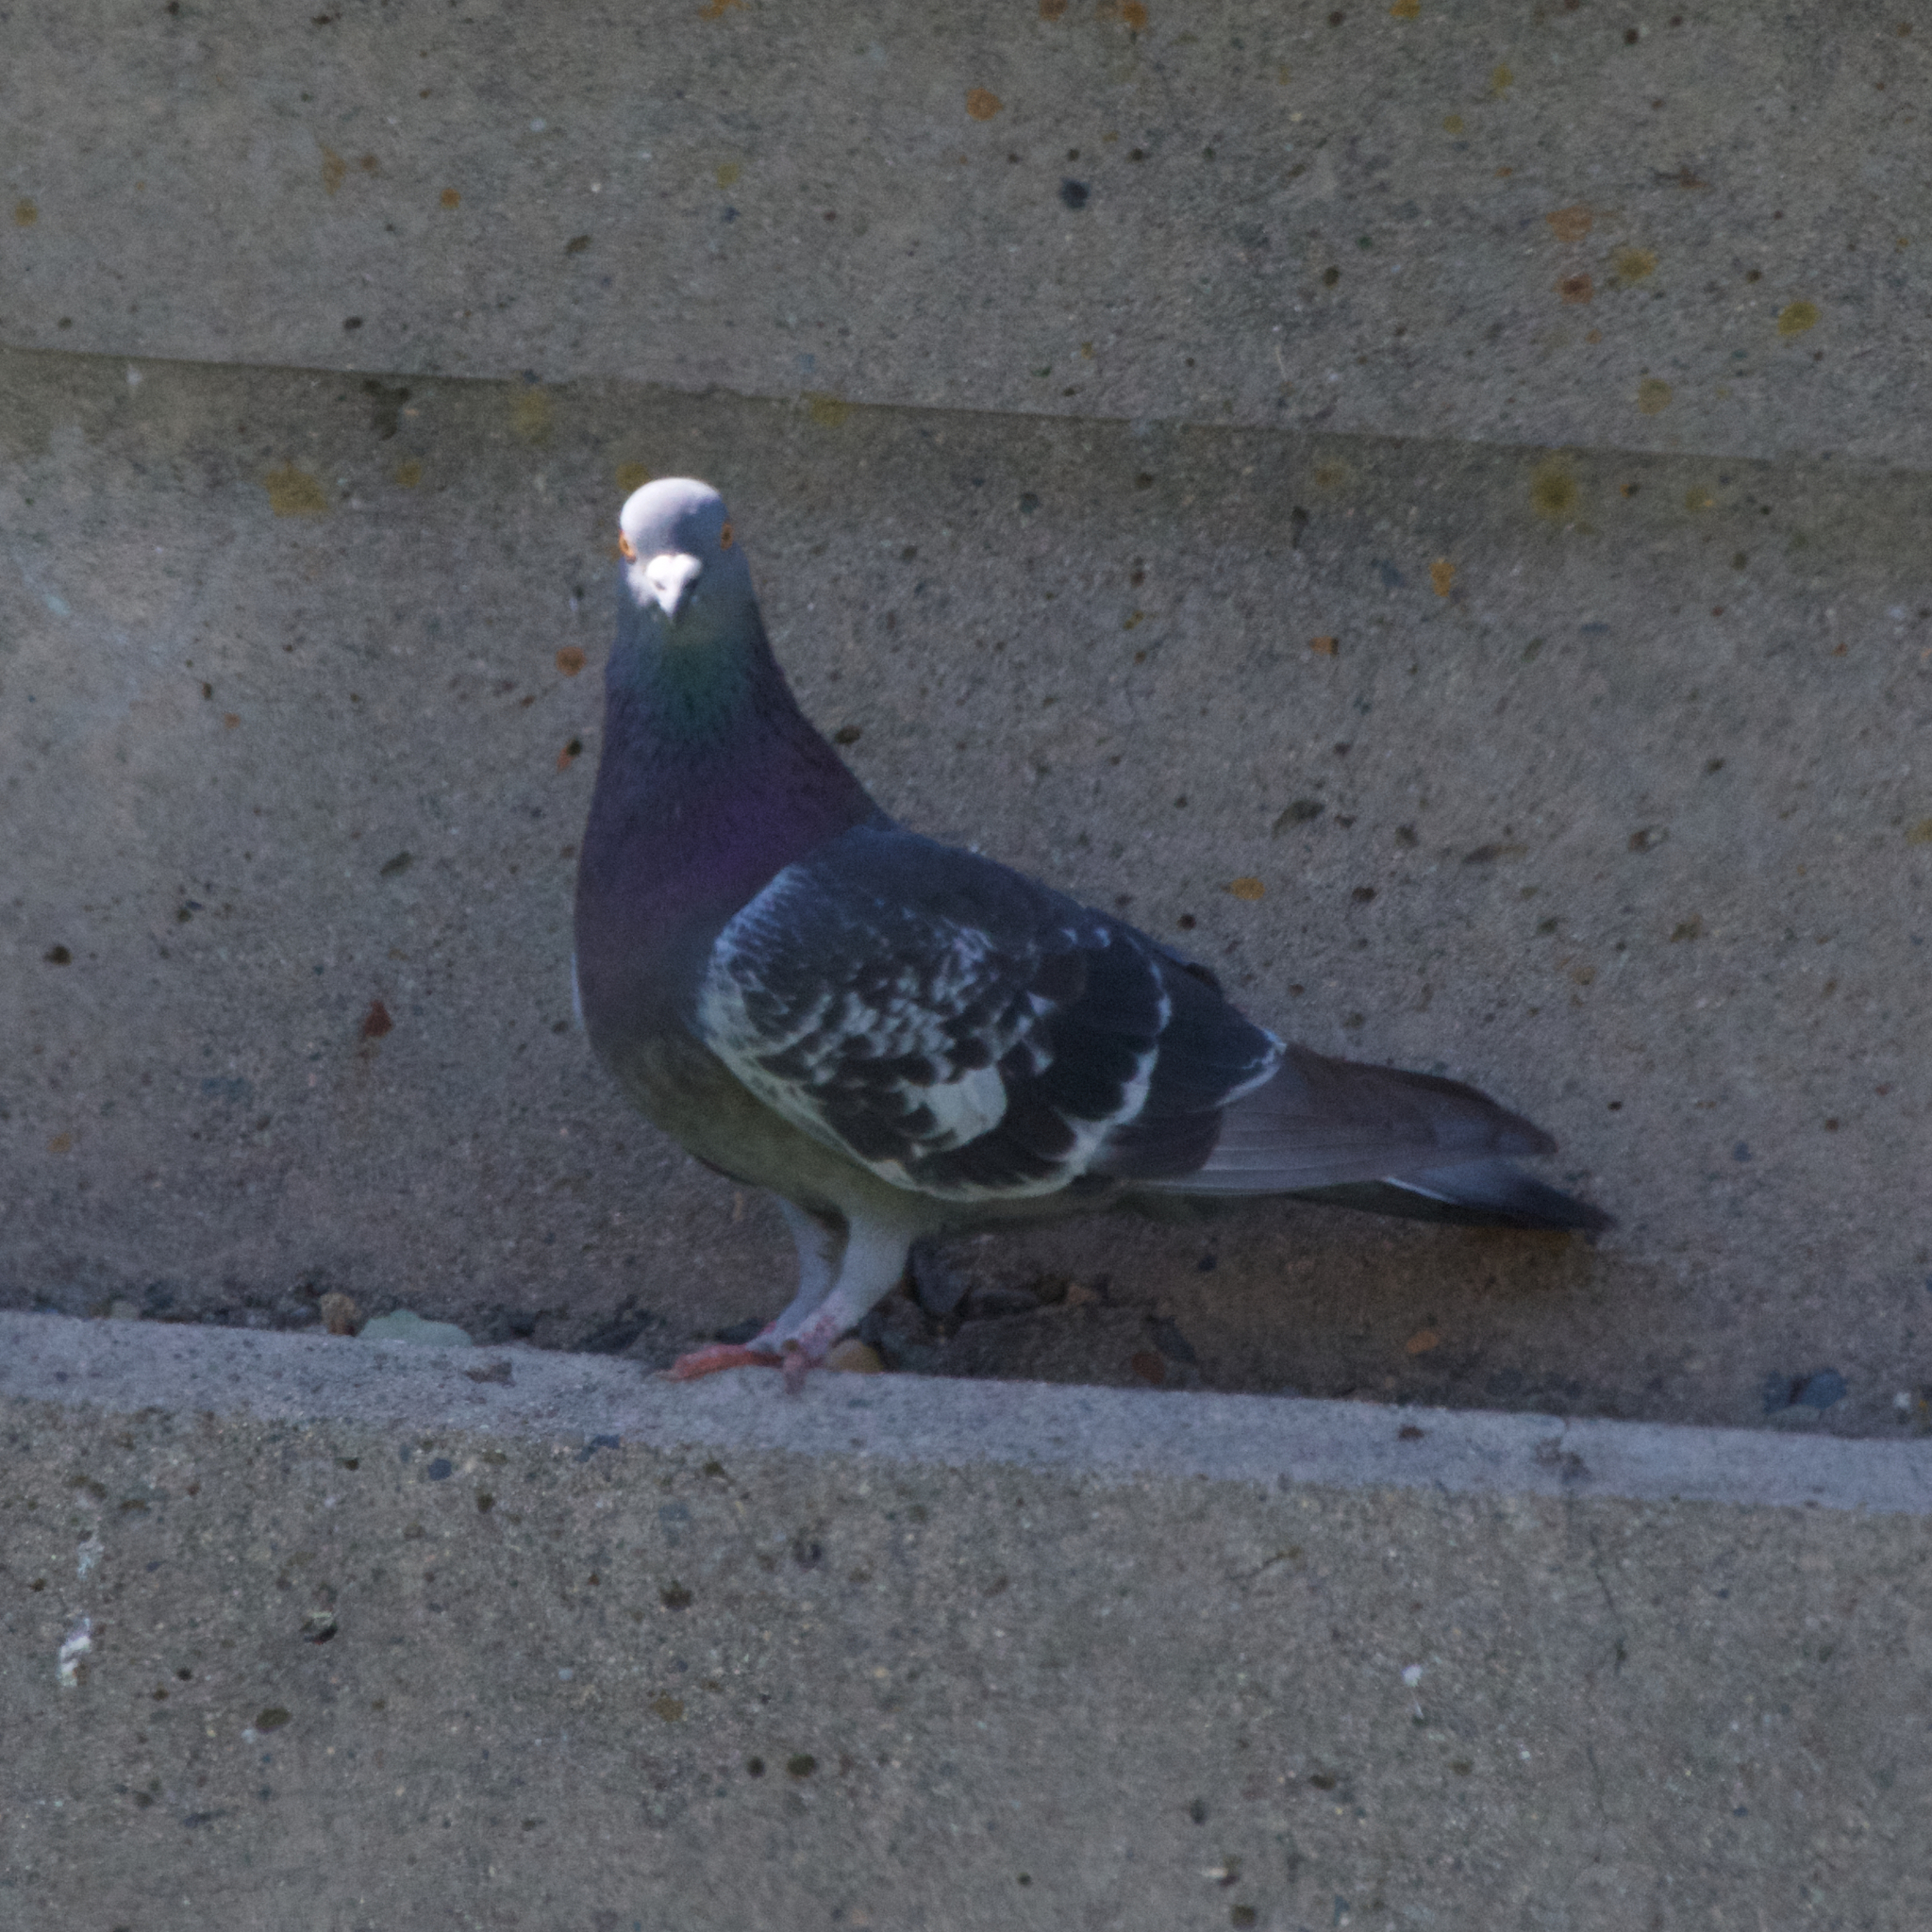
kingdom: Animalia
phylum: Chordata
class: Aves
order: Columbiformes
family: Columbidae
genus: Columba
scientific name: Columba livia
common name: Rock pigeon
